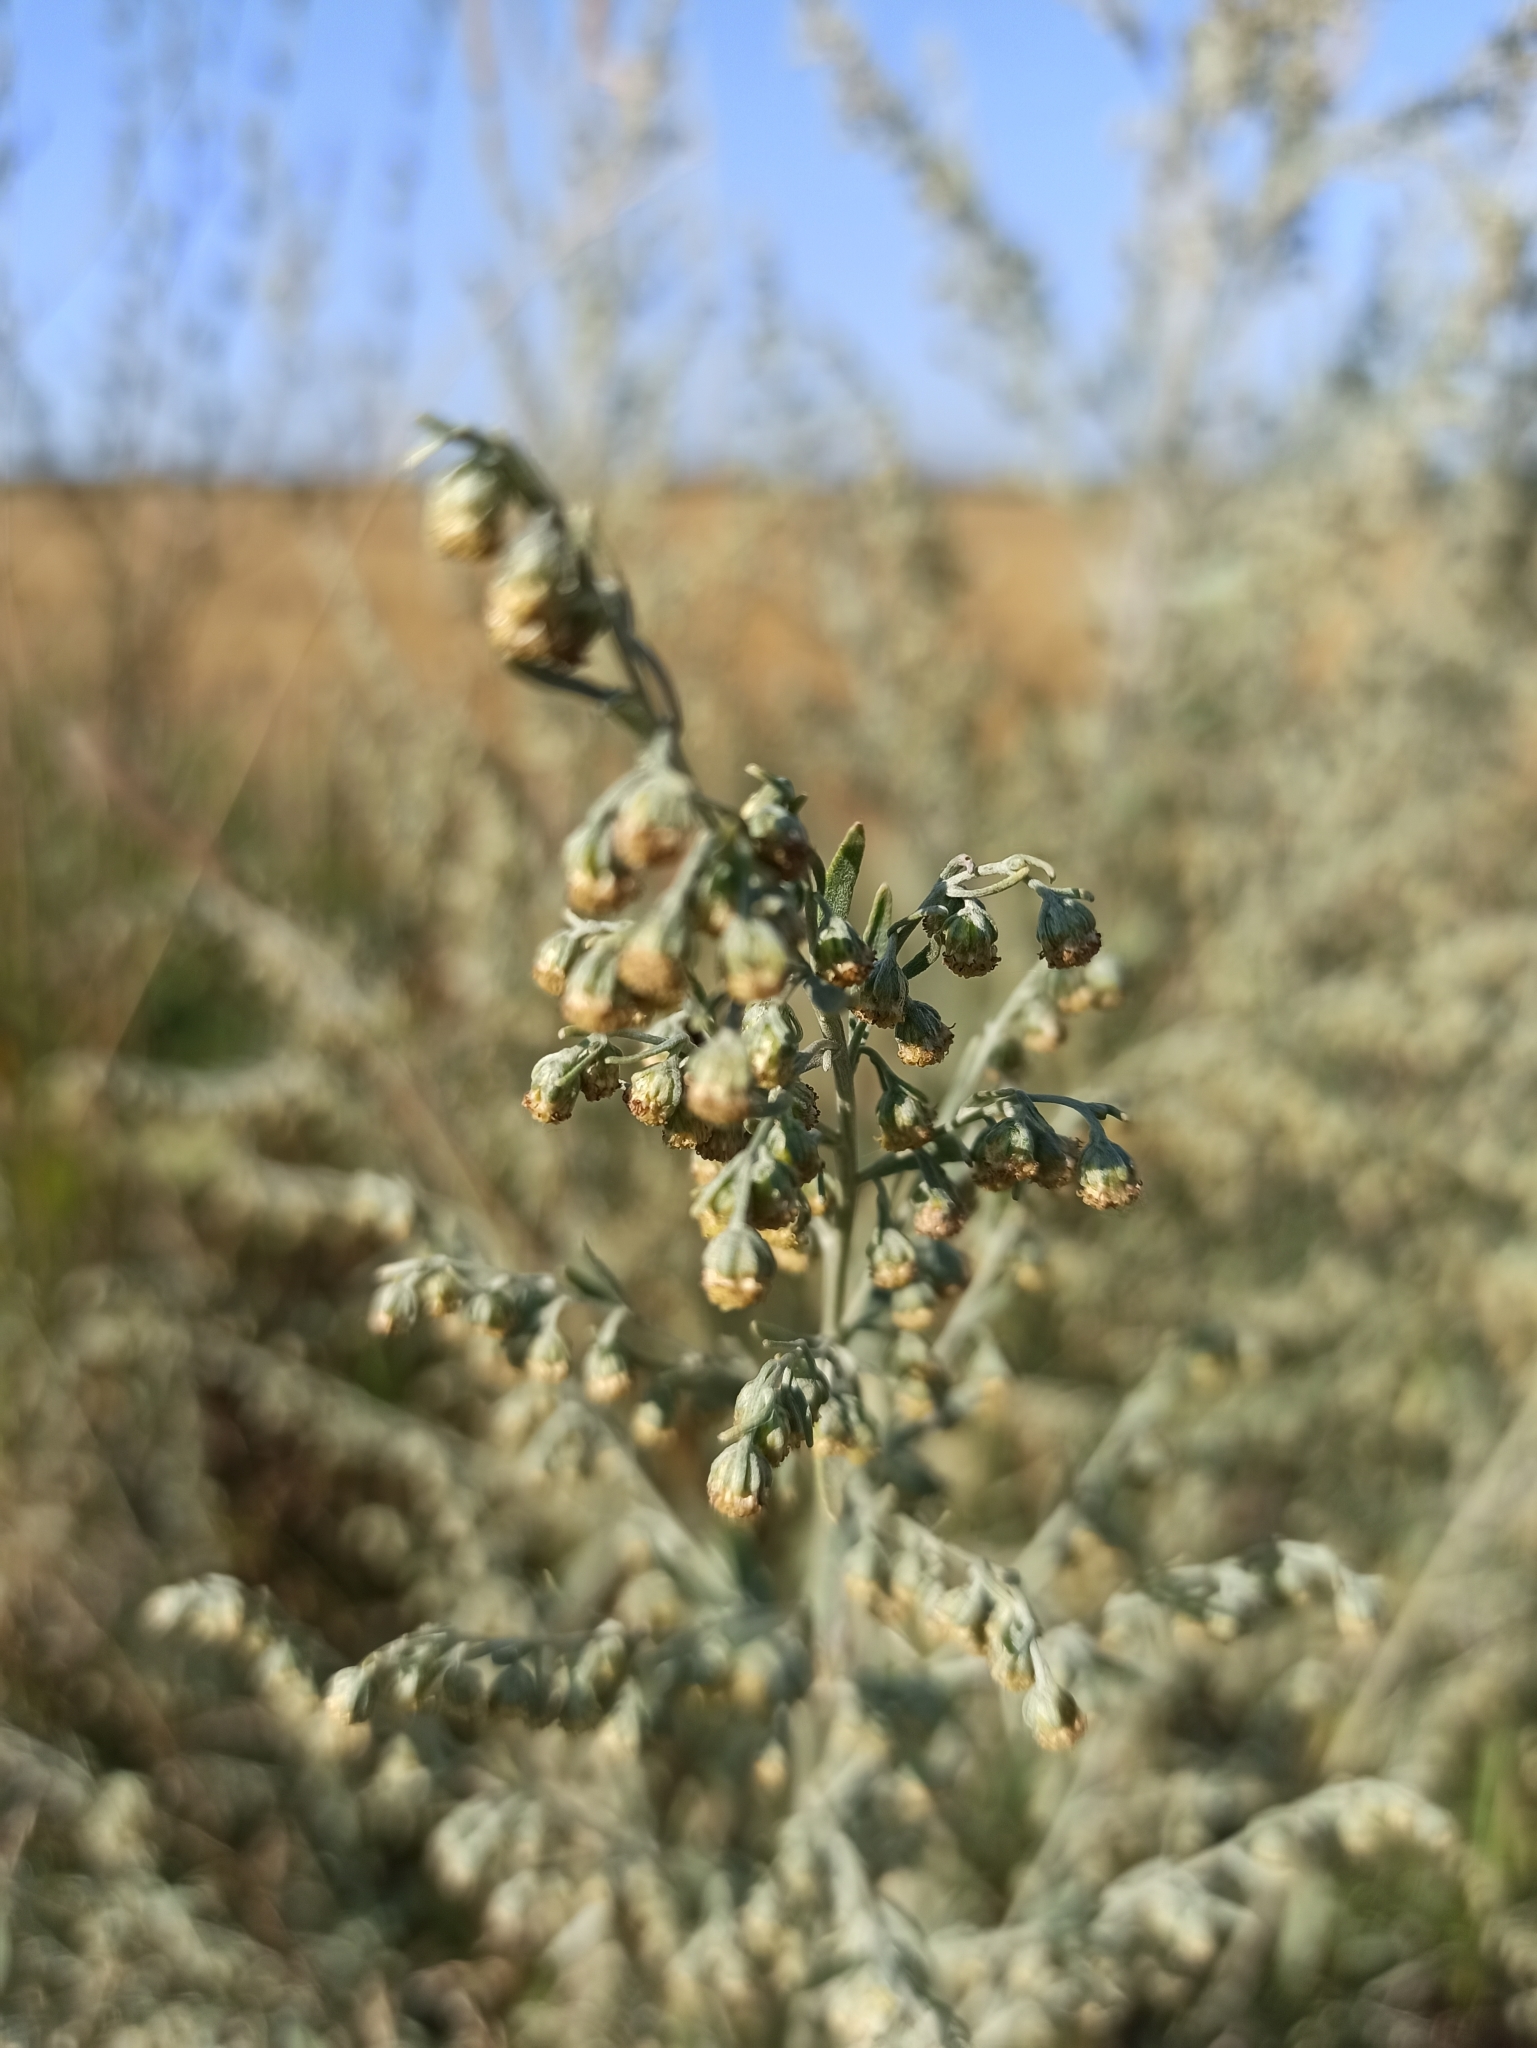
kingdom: Plantae
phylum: Tracheophyta
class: Magnoliopsida
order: Asterales
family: Asteraceae
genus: Artemisia
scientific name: Artemisia absinthium
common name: Wormwood
